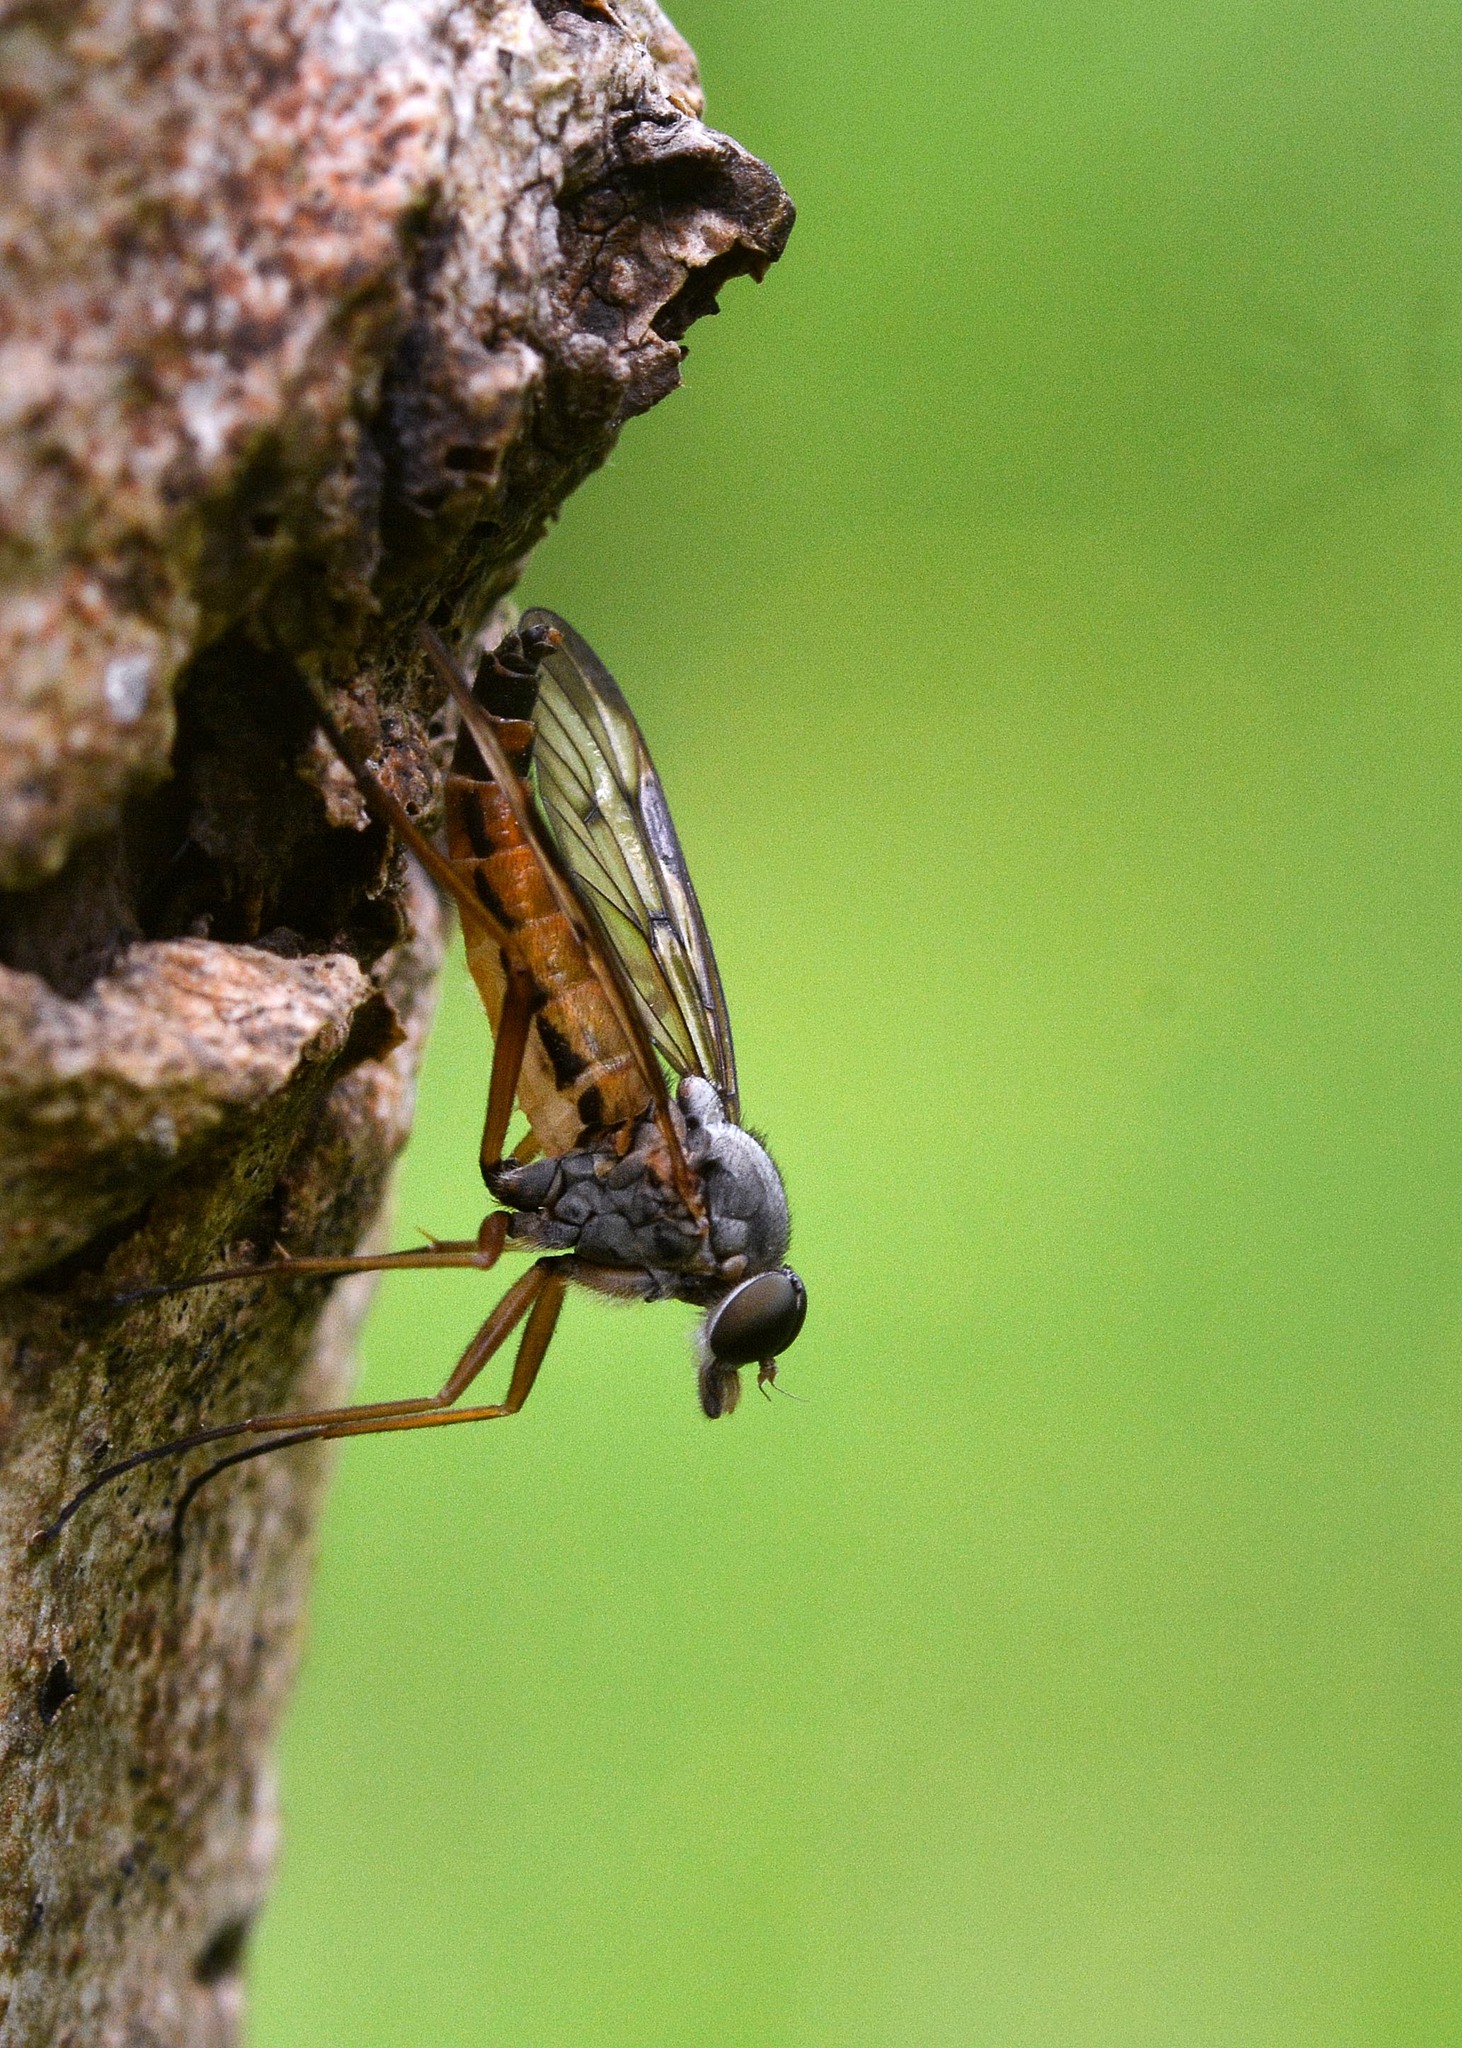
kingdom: Animalia
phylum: Arthropoda
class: Insecta
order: Diptera
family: Rhagionidae
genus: Rhagio
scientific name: Rhagio scolopacea
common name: Downlooker snipefly
